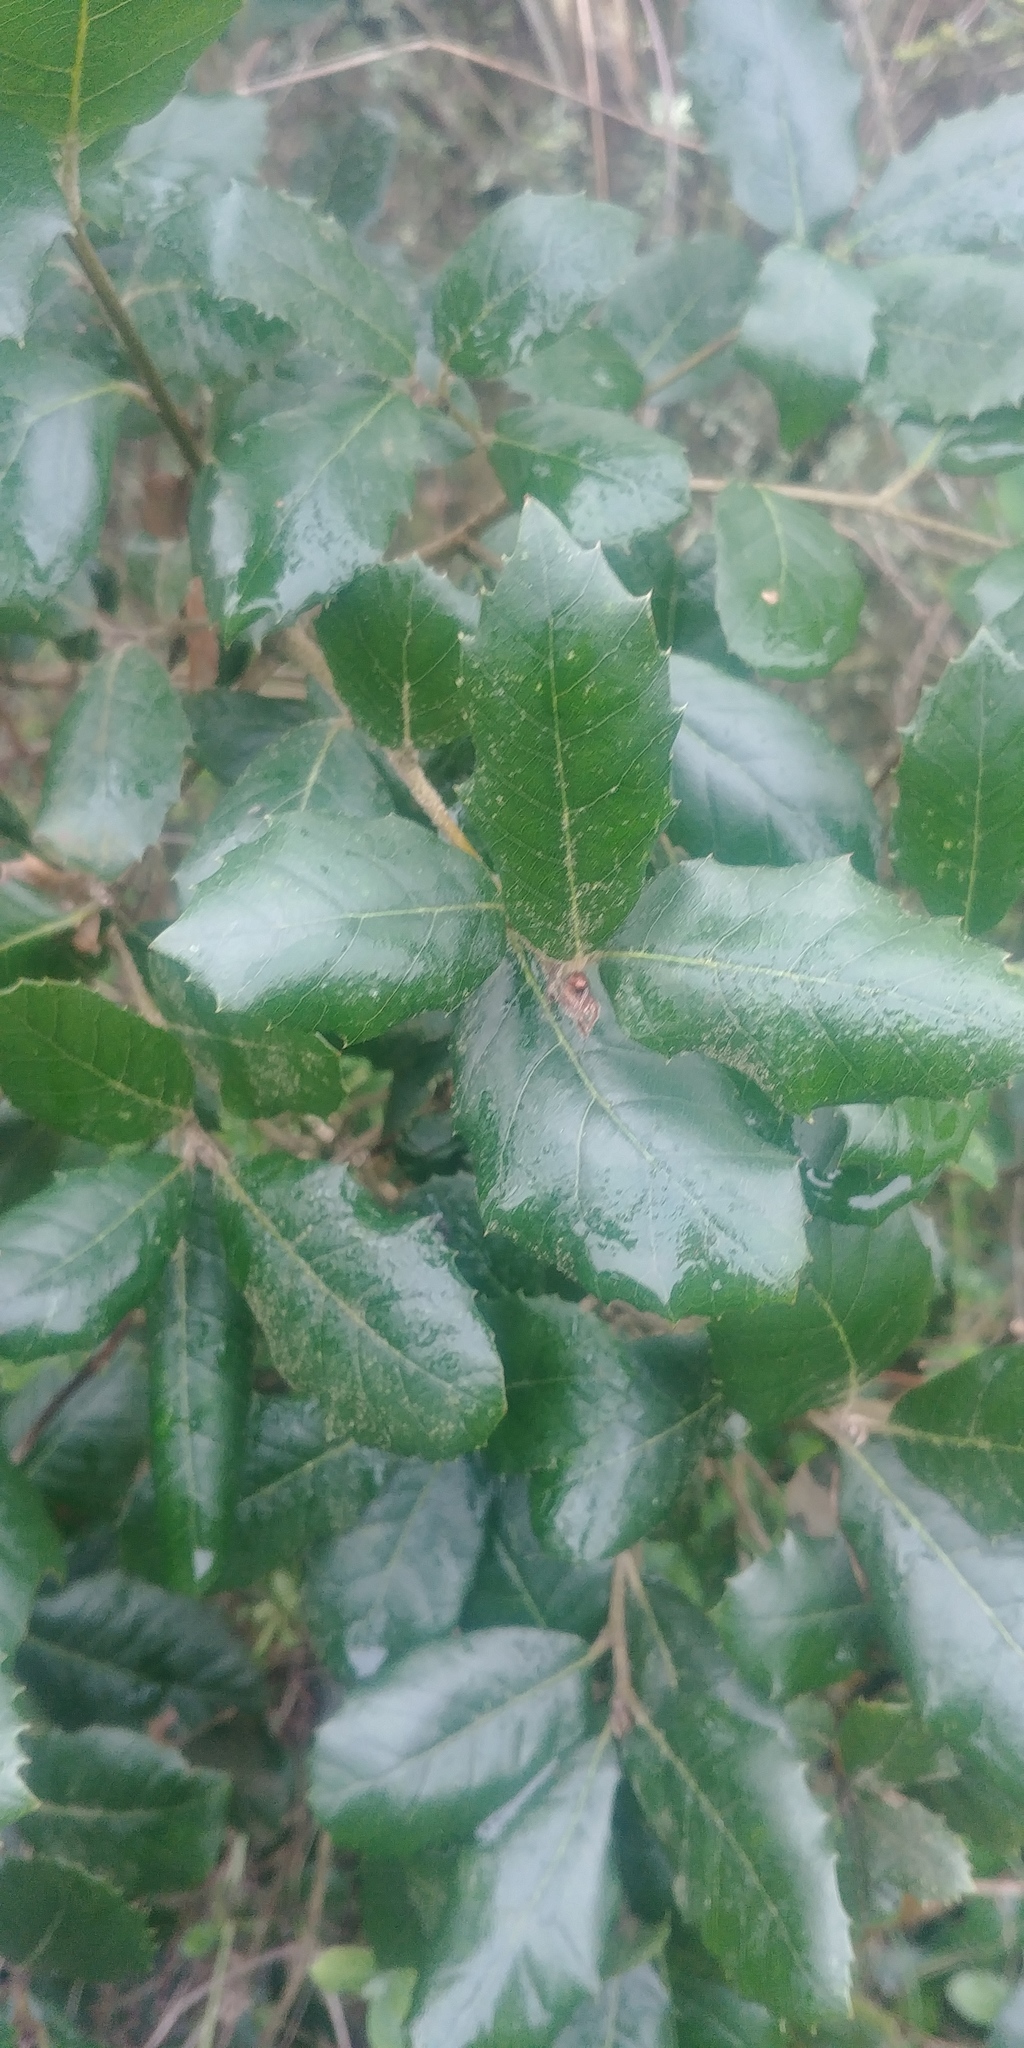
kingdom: Plantae
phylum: Tracheophyta
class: Magnoliopsida
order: Fagales
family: Fagaceae
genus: Quercus
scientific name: Quercus ilex
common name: Evergreen oak
